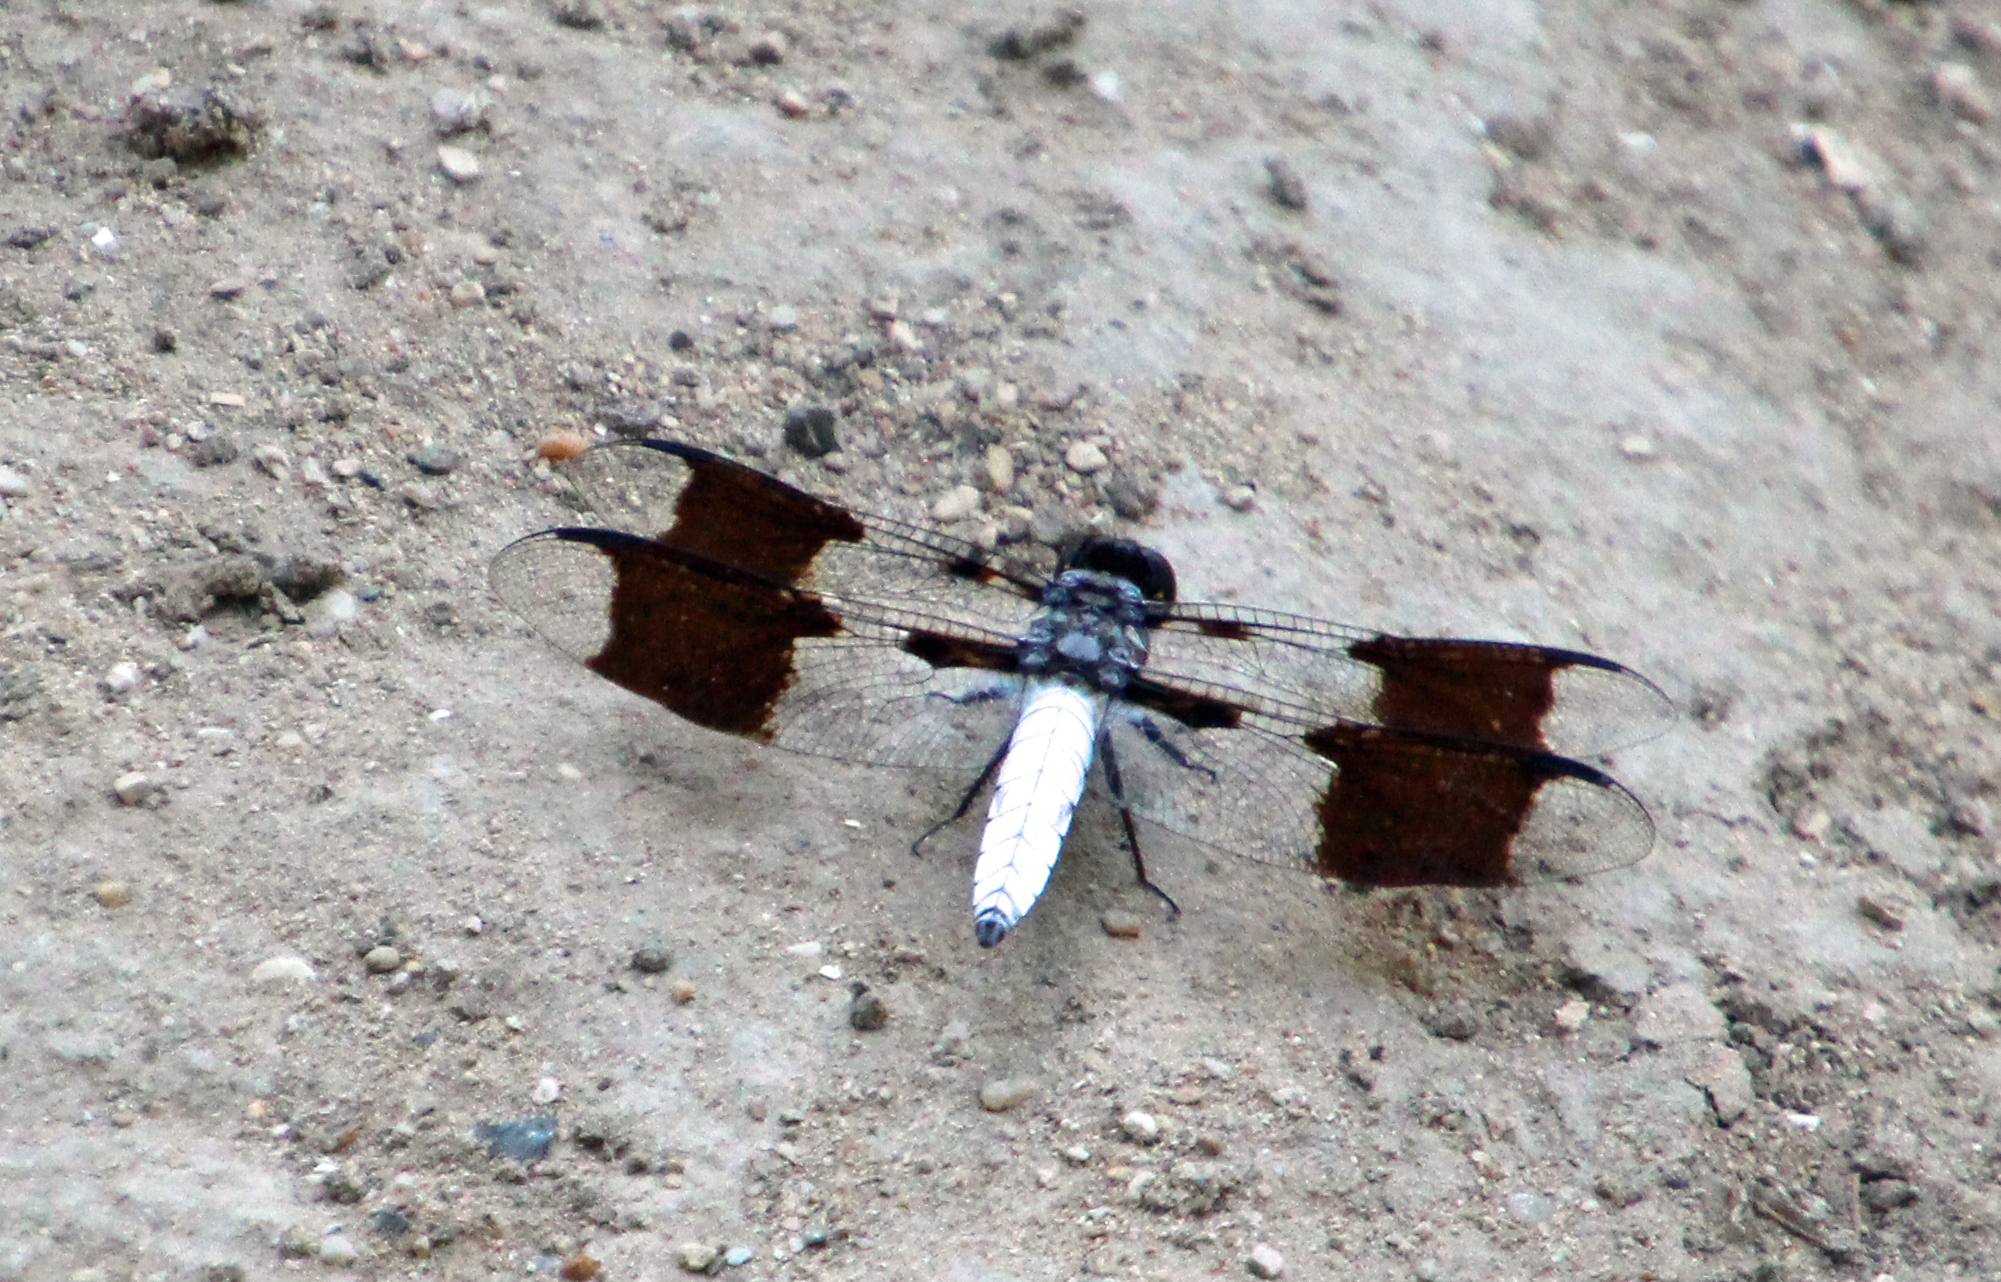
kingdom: Animalia
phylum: Arthropoda
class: Insecta
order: Odonata
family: Libellulidae
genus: Plathemis
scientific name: Plathemis lydia
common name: Common whitetail
